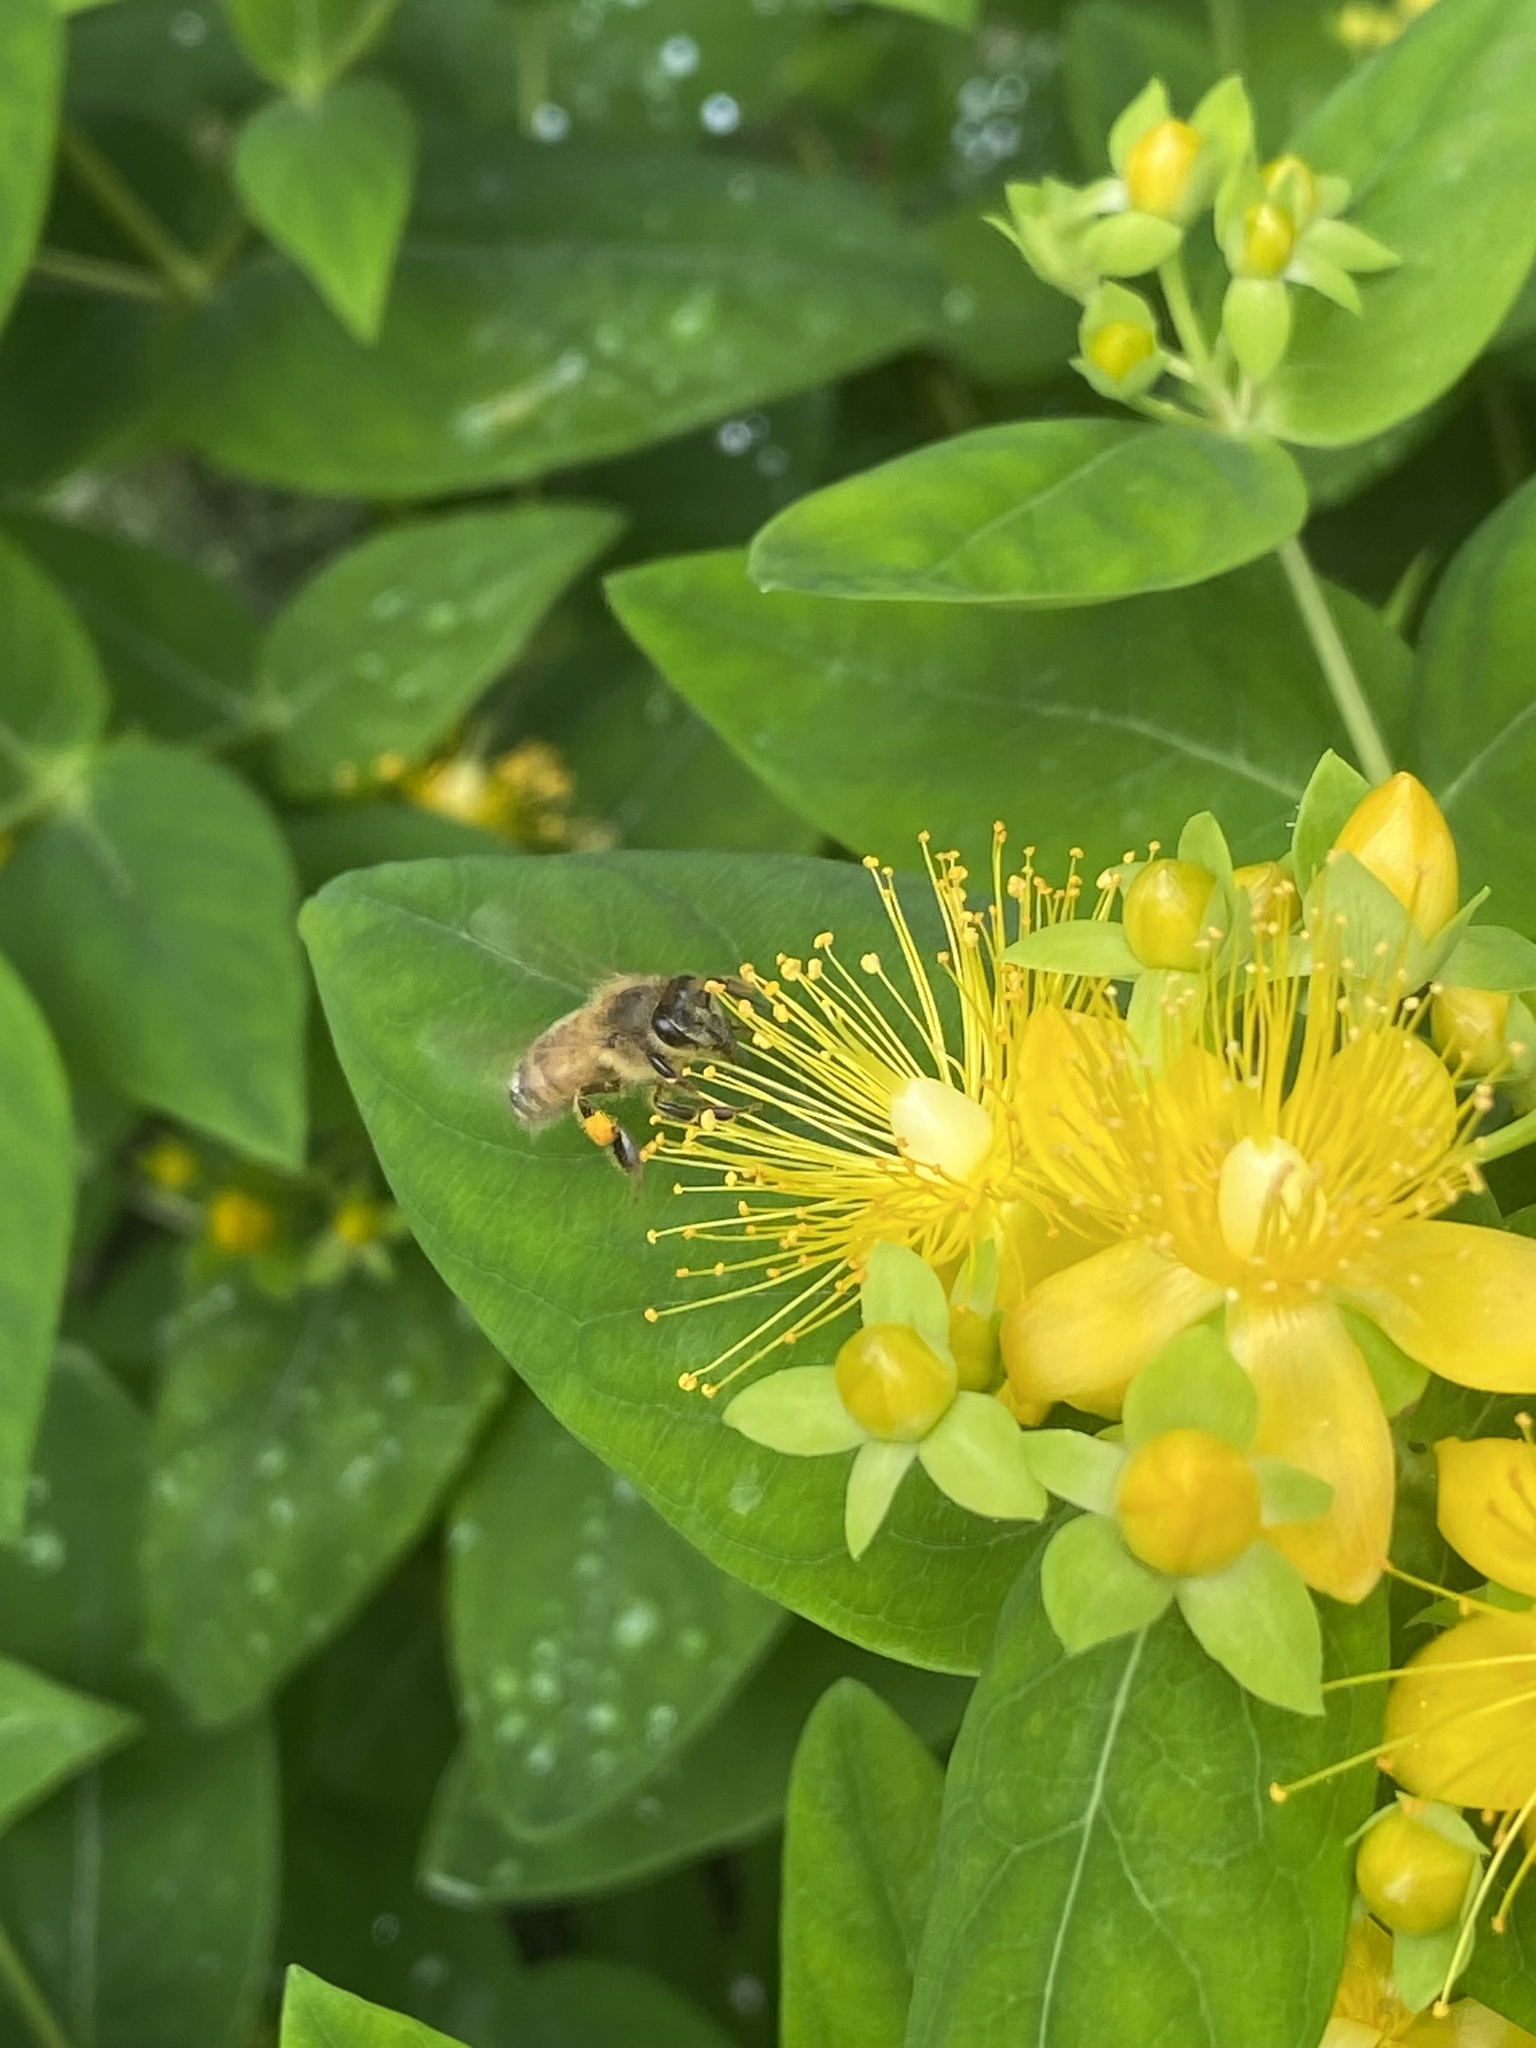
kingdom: Animalia
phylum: Arthropoda
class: Insecta
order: Hymenoptera
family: Apidae
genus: Apis
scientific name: Apis mellifera
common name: Honey bee
